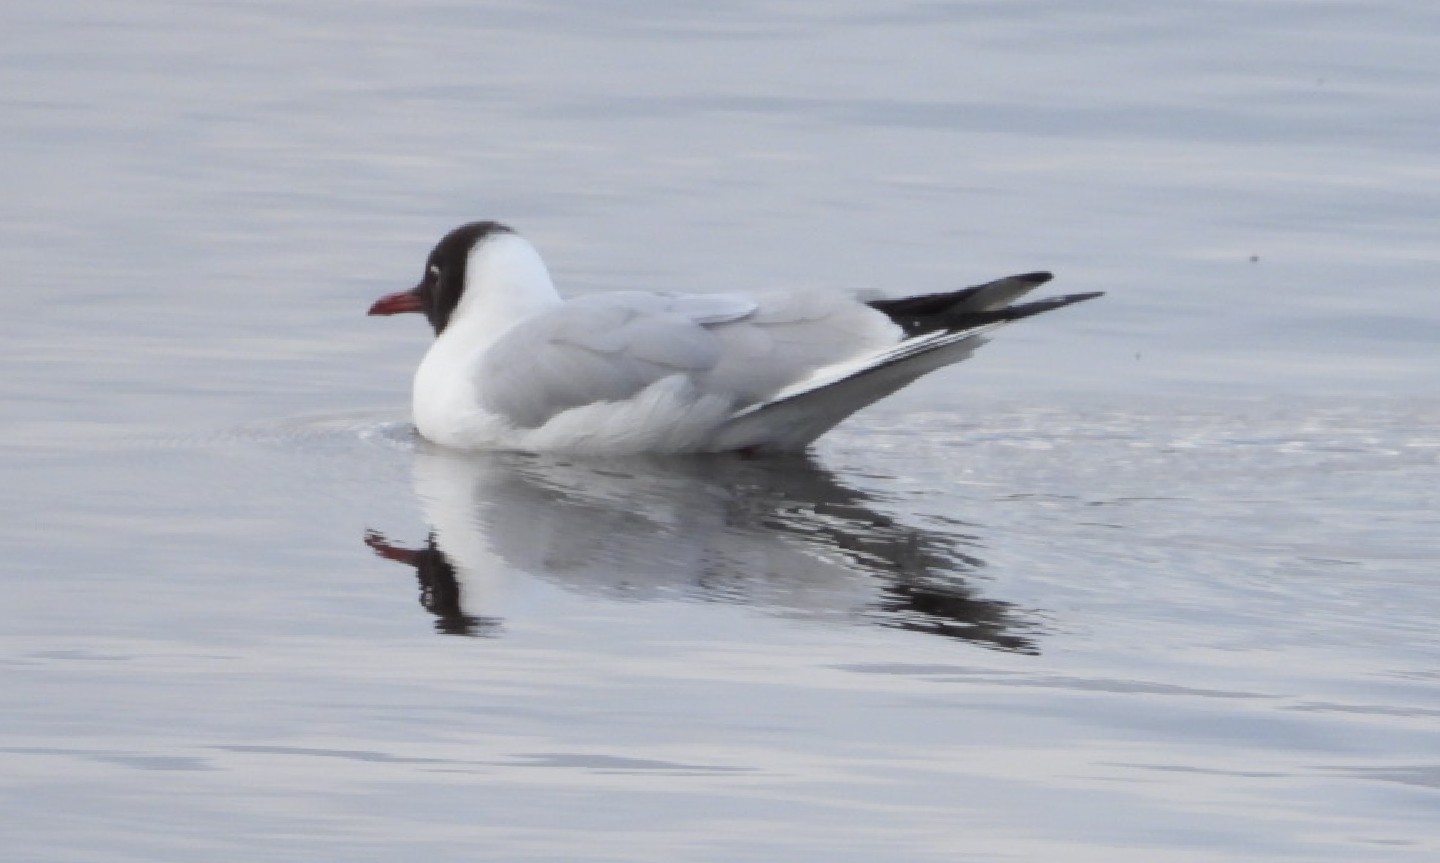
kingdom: Animalia
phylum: Chordata
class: Aves
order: Charadriiformes
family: Laridae
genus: Chroicocephalus
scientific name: Chroicocephalus ridibundus
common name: Black-headed gull
